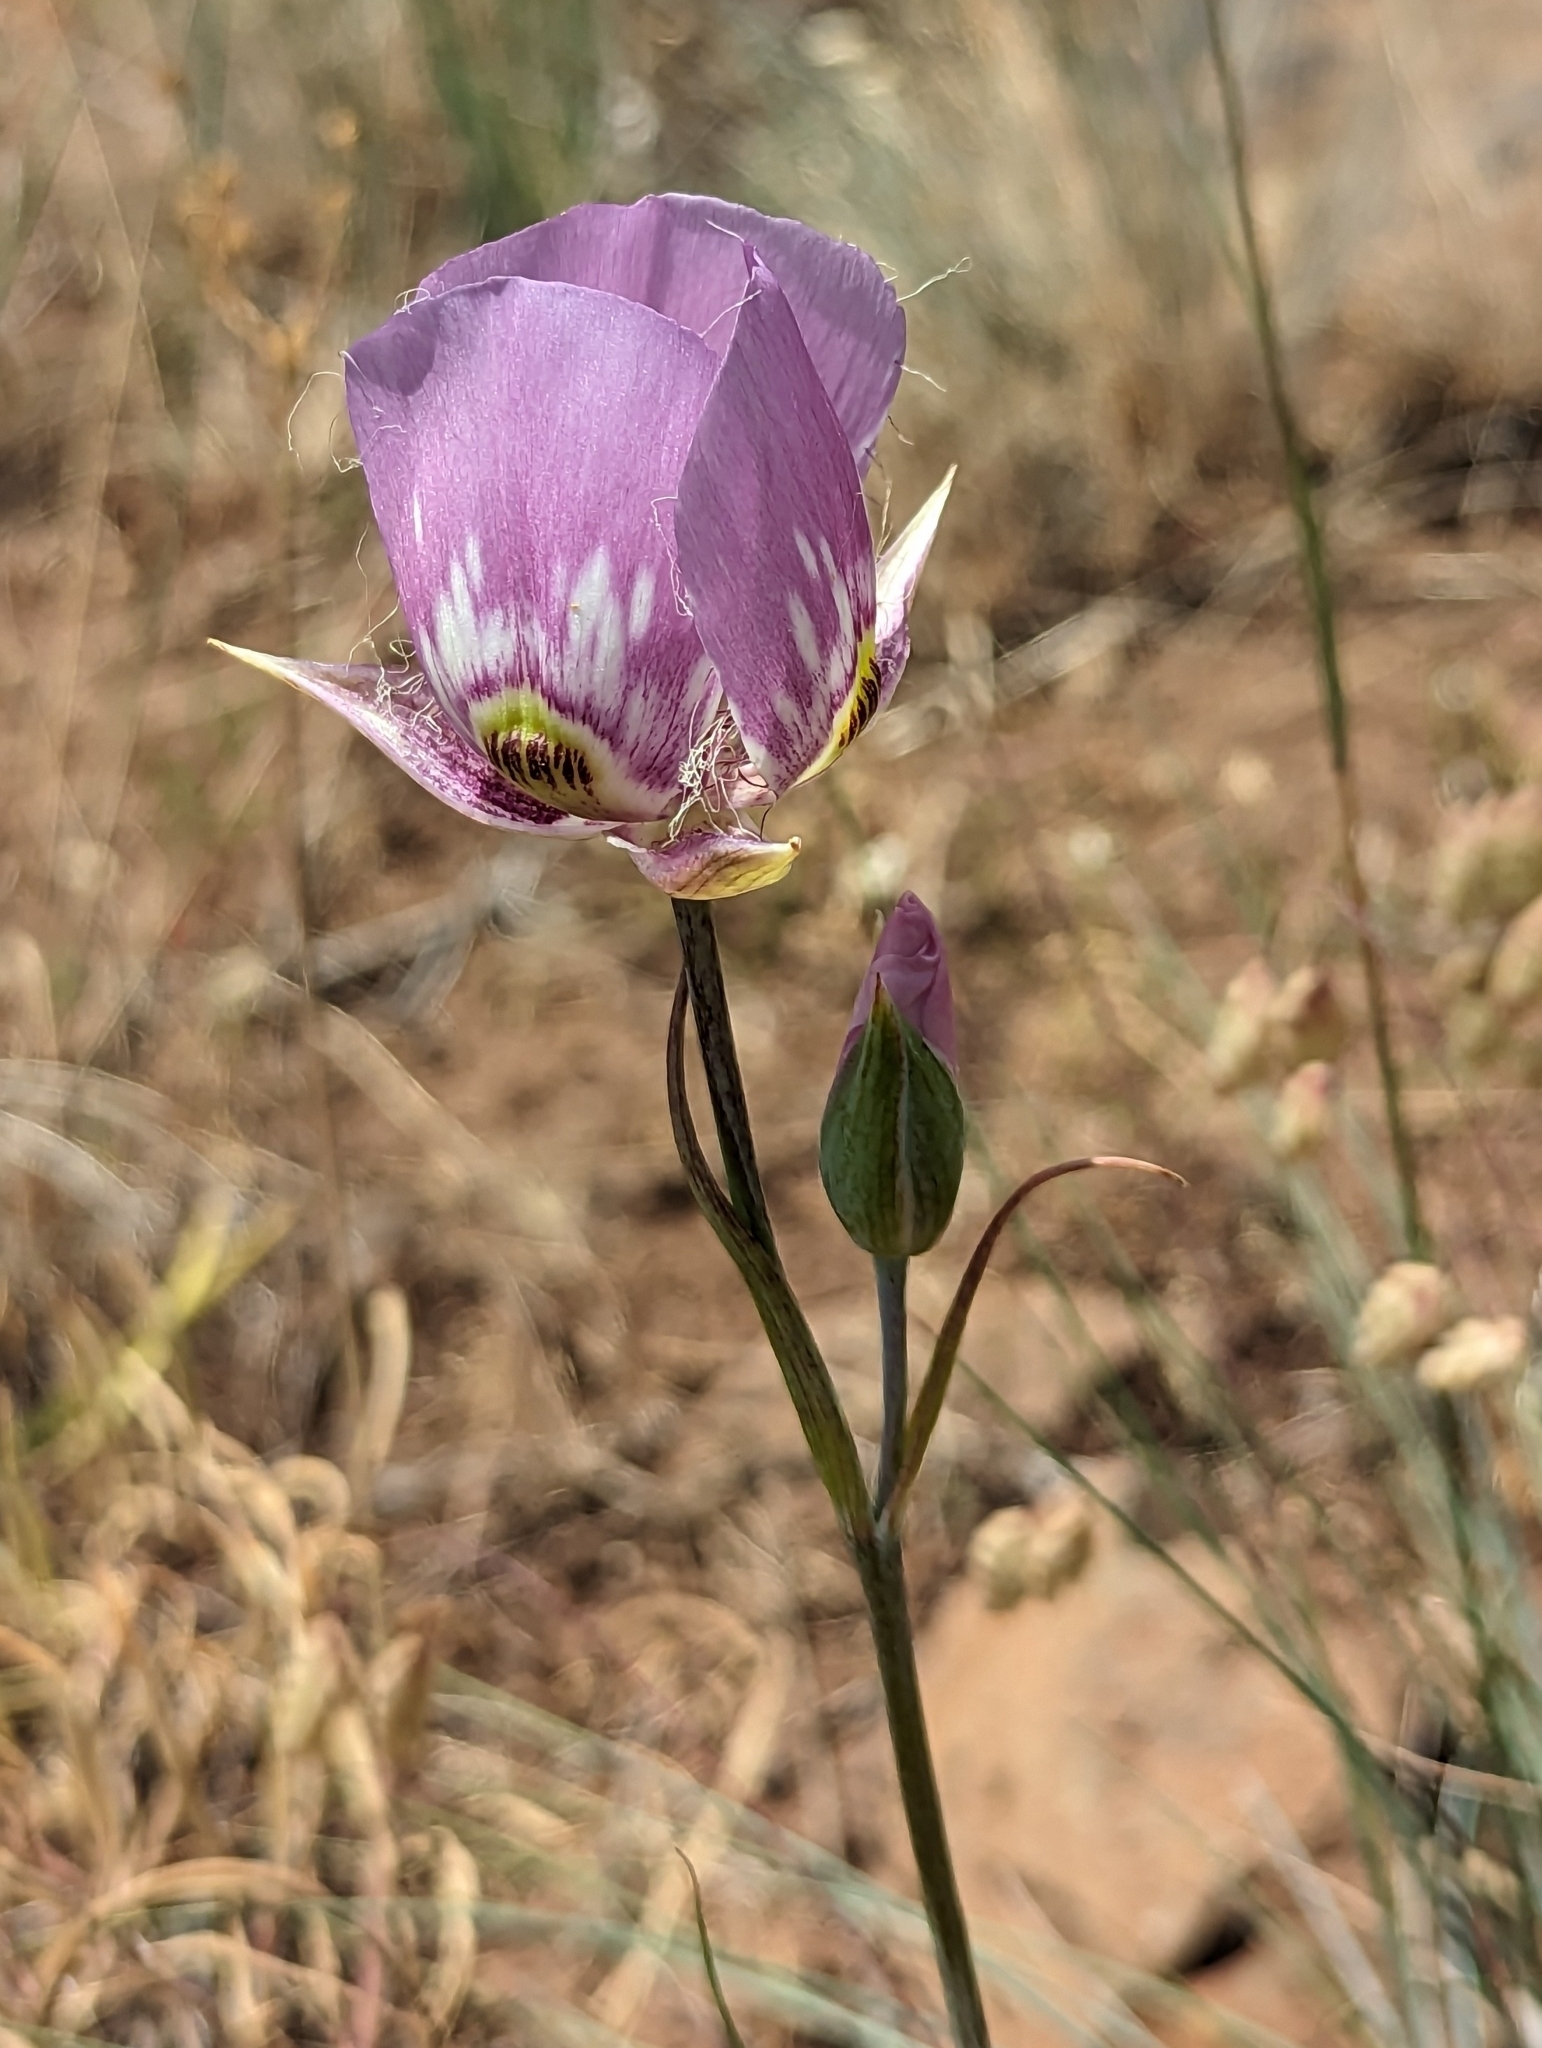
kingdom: Plantae
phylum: Tracheophyta
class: Liliopsida
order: Liliales
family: Liliaceae
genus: Calochortus
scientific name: Calochortus nitidus
